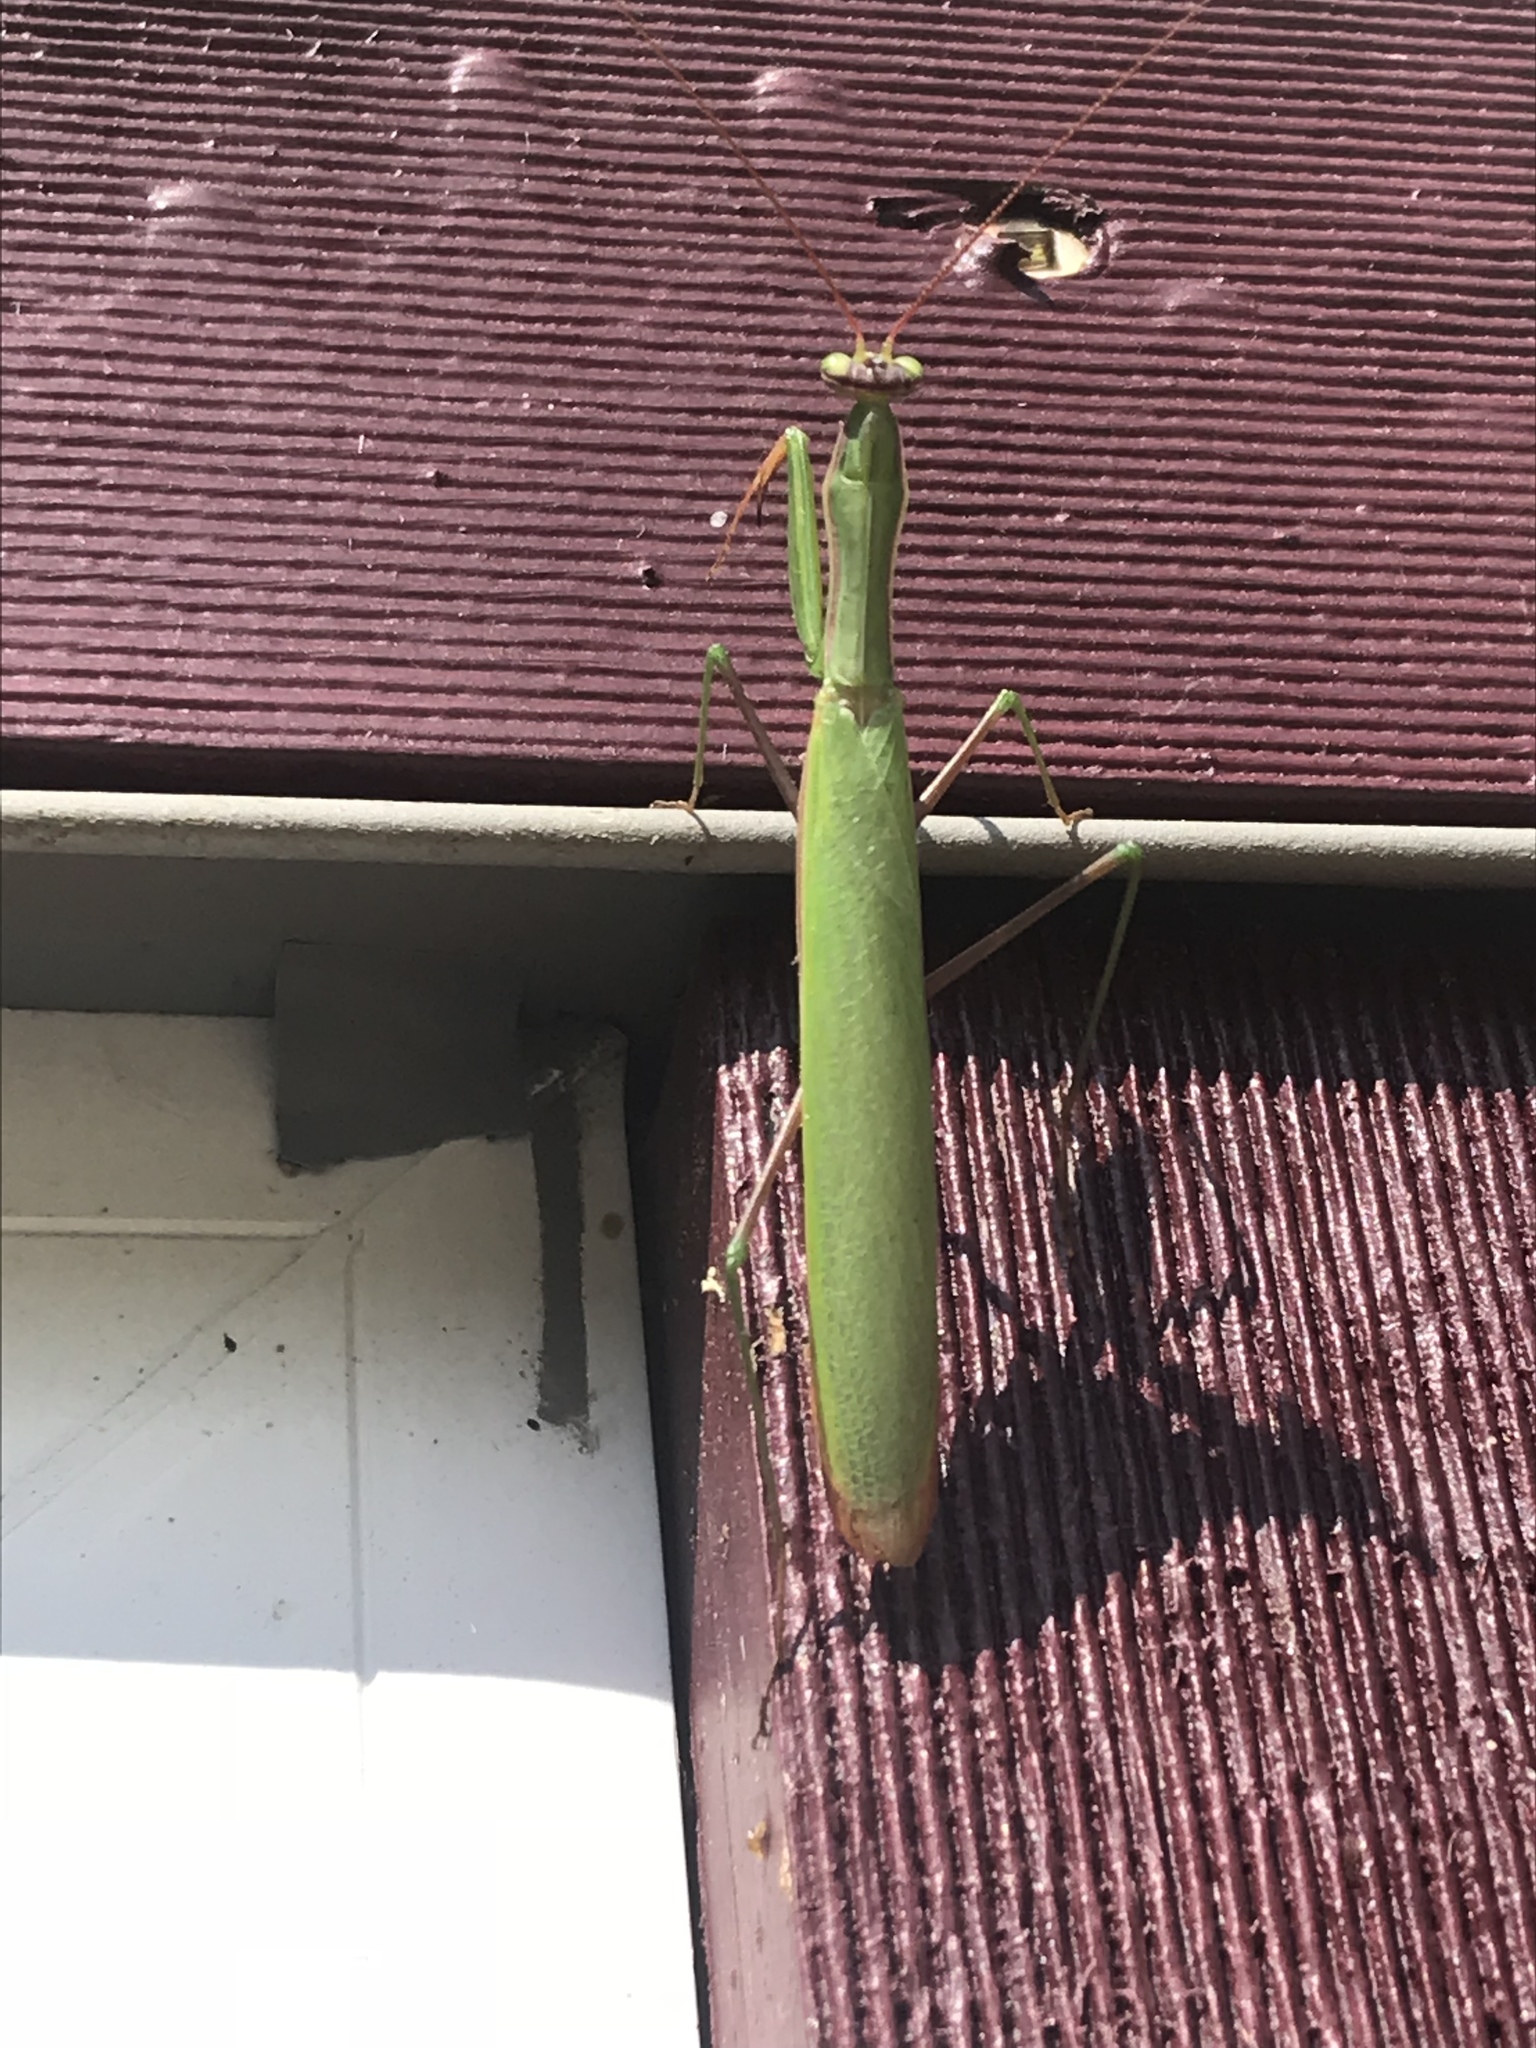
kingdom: Animalia
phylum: Arthropoda
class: Insecta
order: Mantodea
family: Mantidae
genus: Mantis
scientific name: Mantis religiosa
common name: Praying mantis
